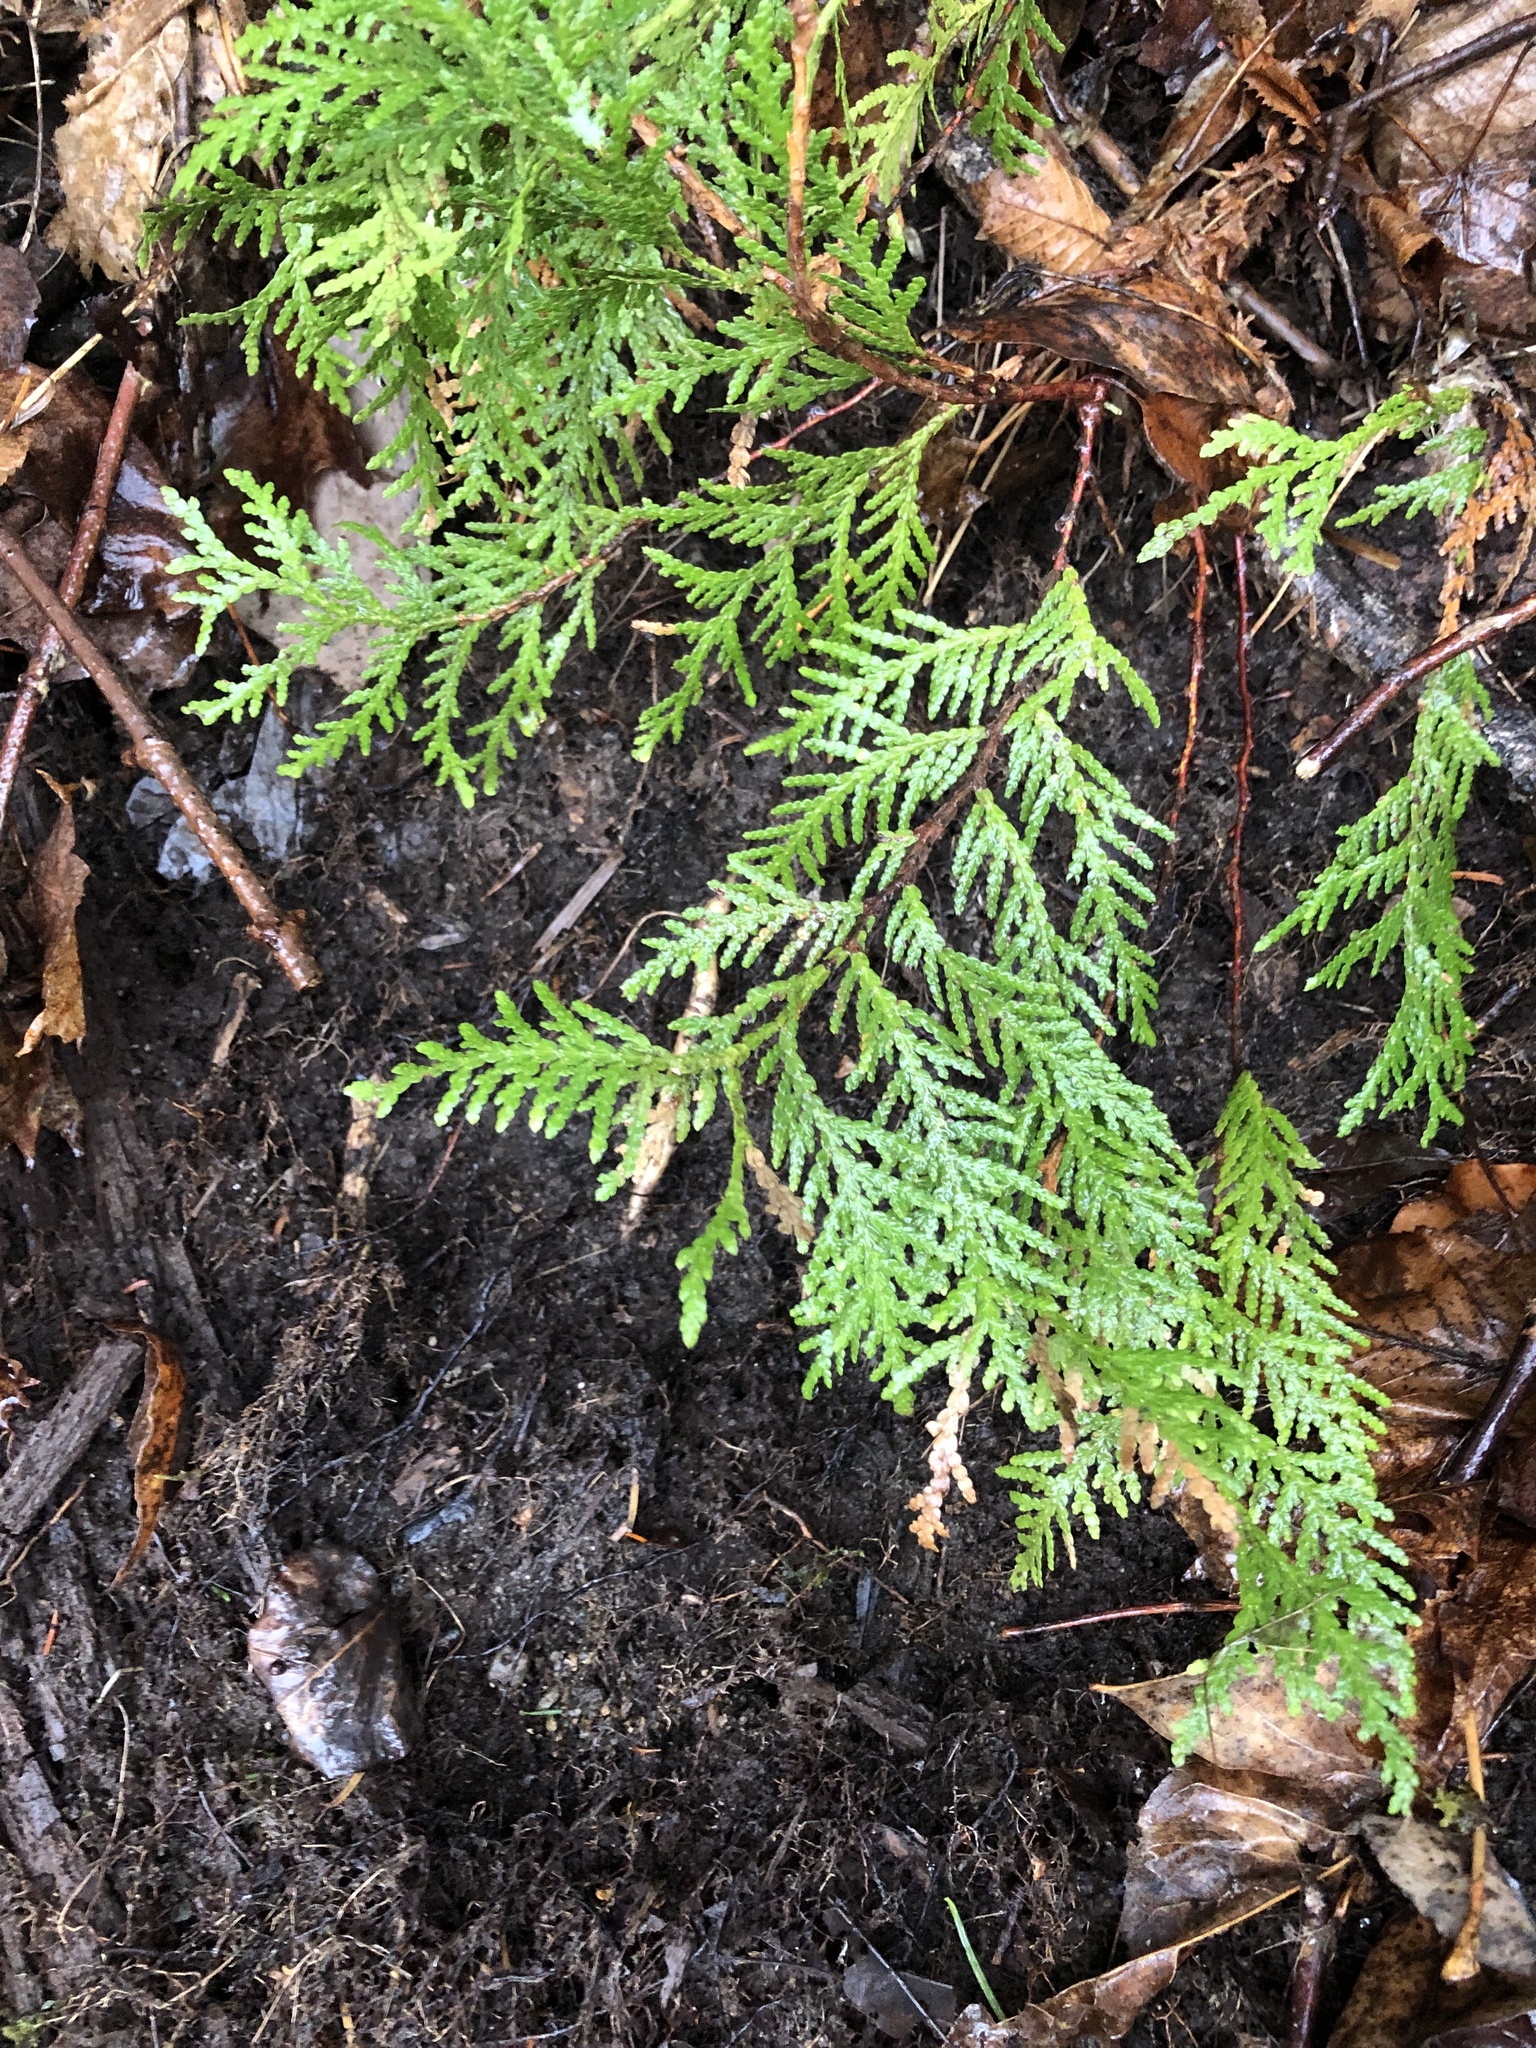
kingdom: Plantae
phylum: Tracheophyta
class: Pinopsida
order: Pinales
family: Cupressaceae
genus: Thuja
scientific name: Thuja occidentalis
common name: Northern white-cedar
